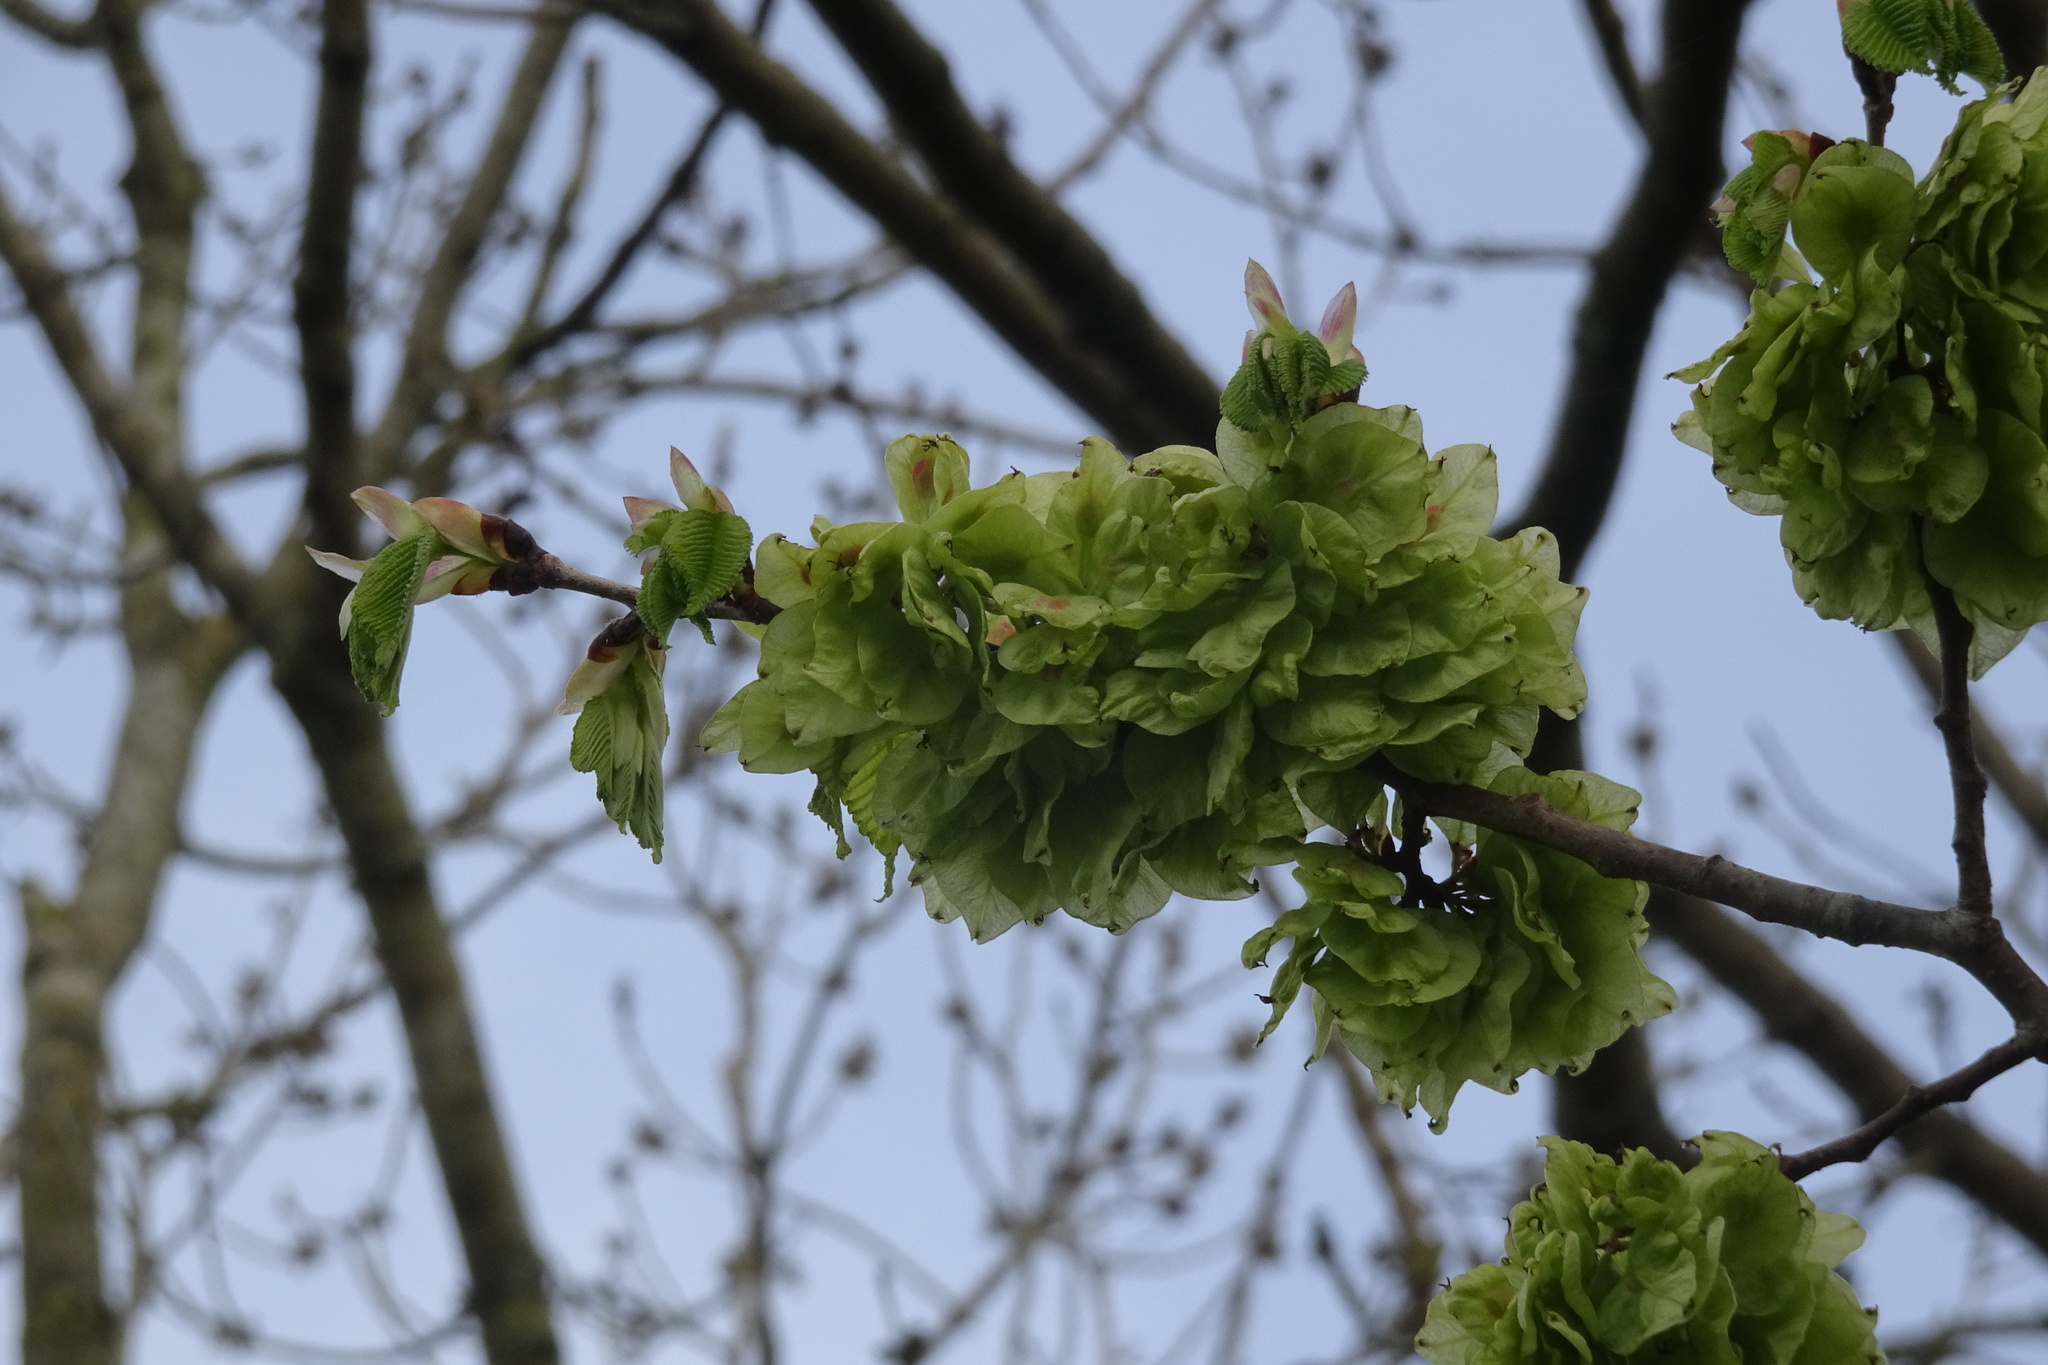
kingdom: Plantae
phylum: Tracheophyta
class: Magnoliopsida
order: Rosales
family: Ulmaceae
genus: Ulmus
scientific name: Ulmus glabra
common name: Wych elm
